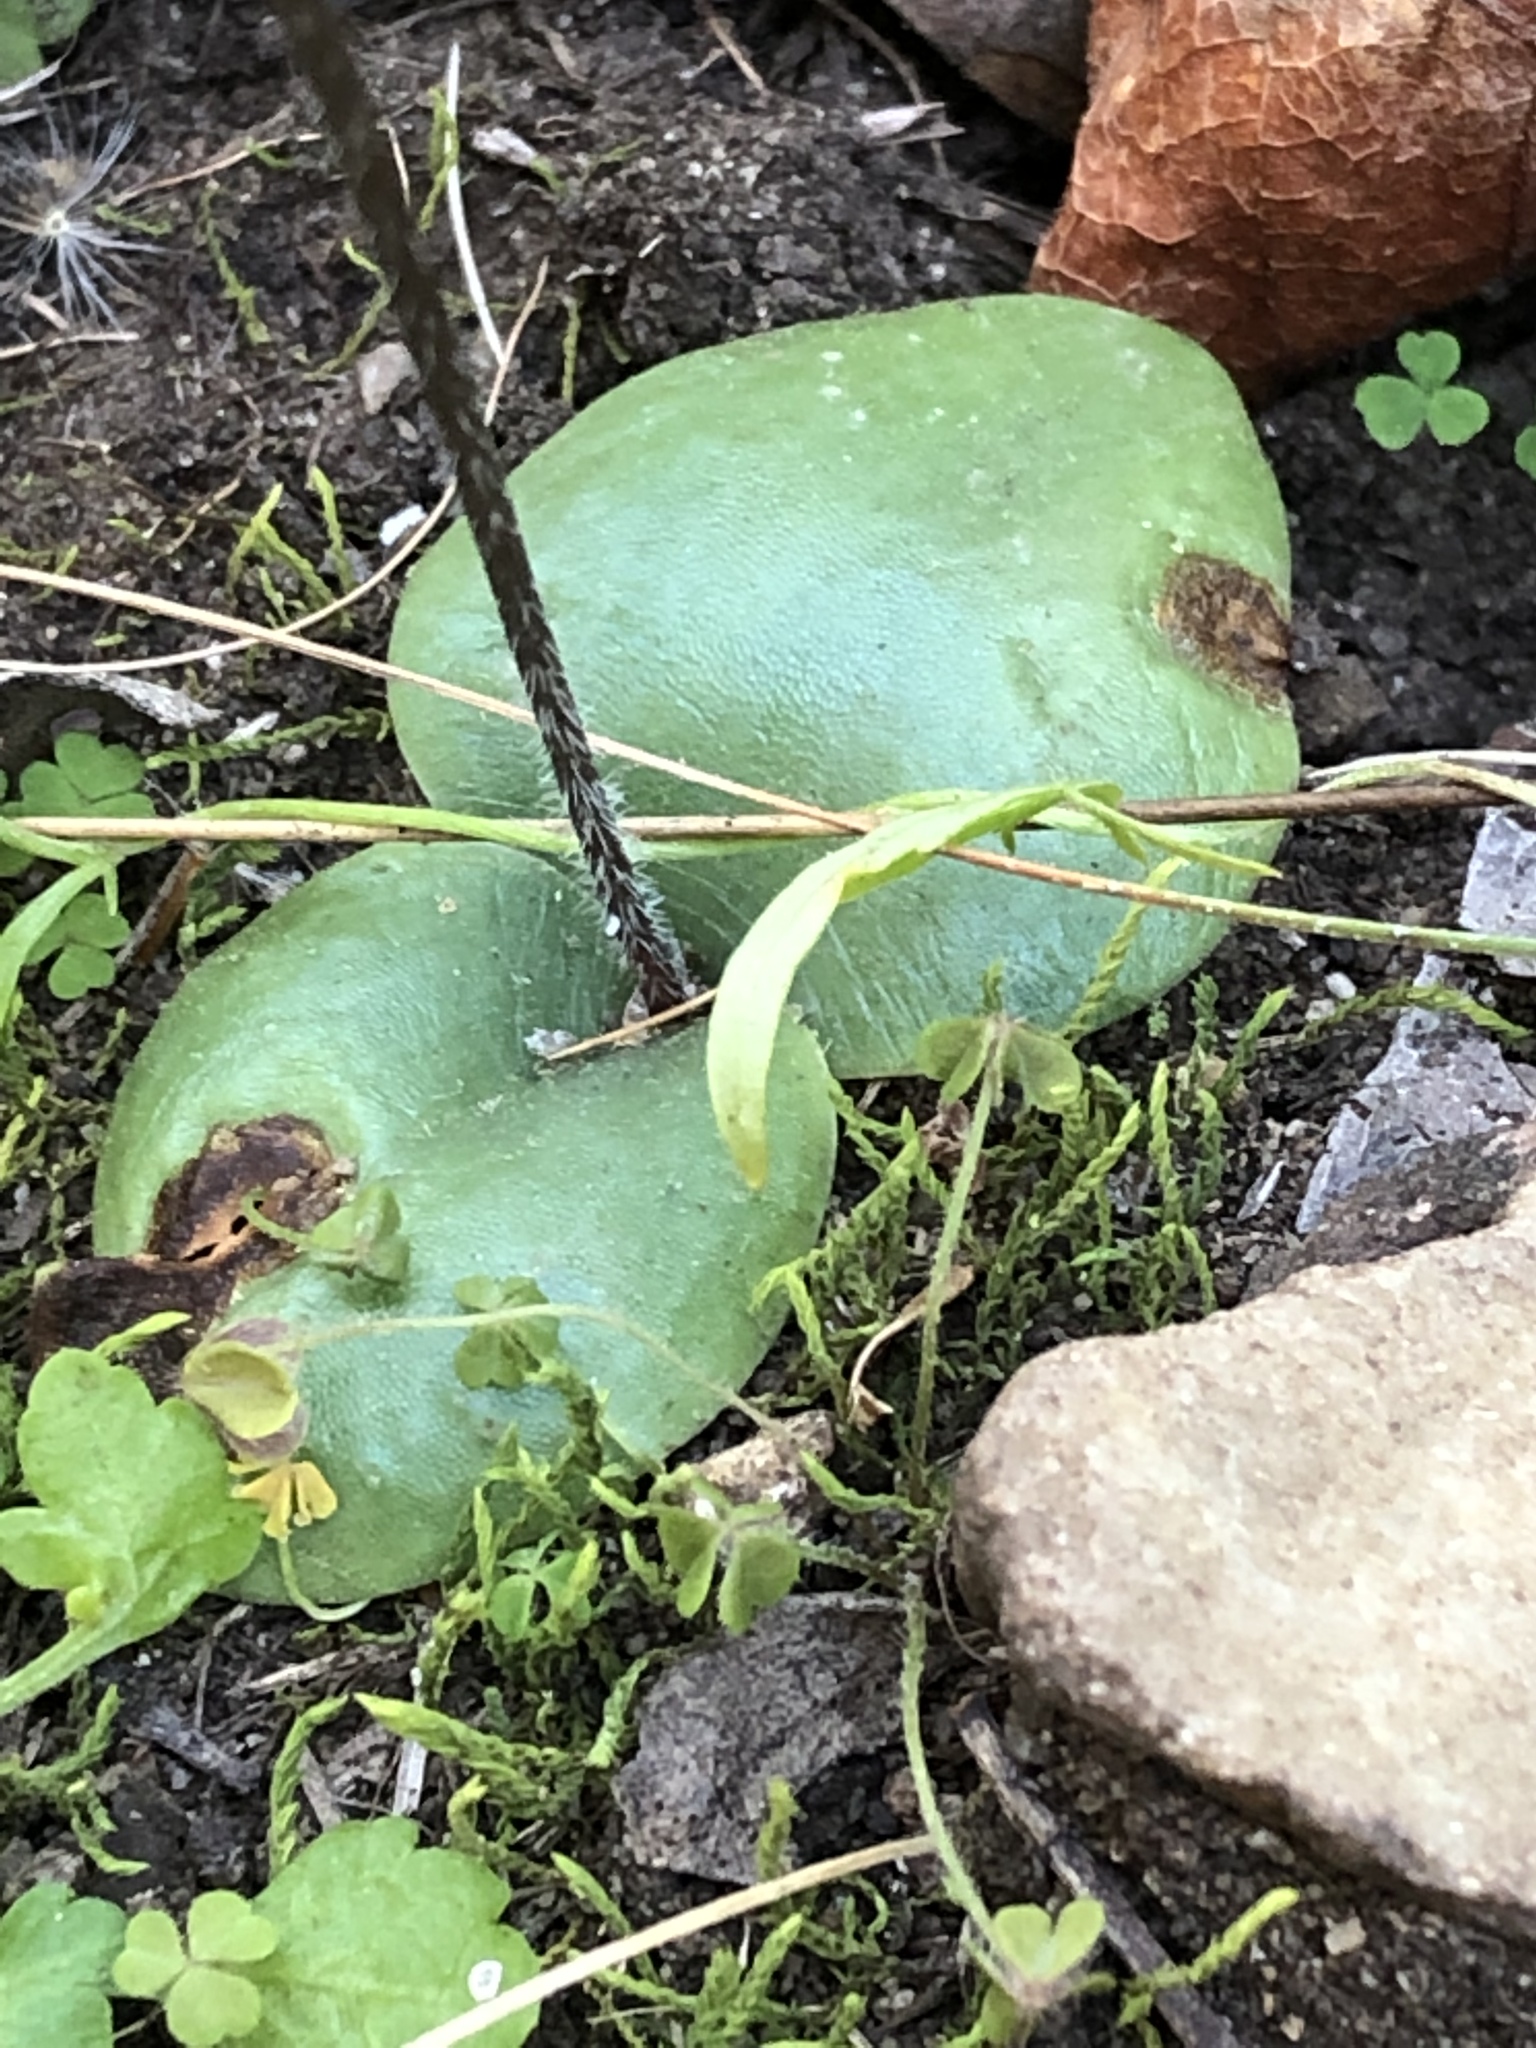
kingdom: Plantae
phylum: Tracheophyta
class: Liliopsida
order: Asparagales
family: Orchidaceae
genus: Holothrix
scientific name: Holothrix parviflora
